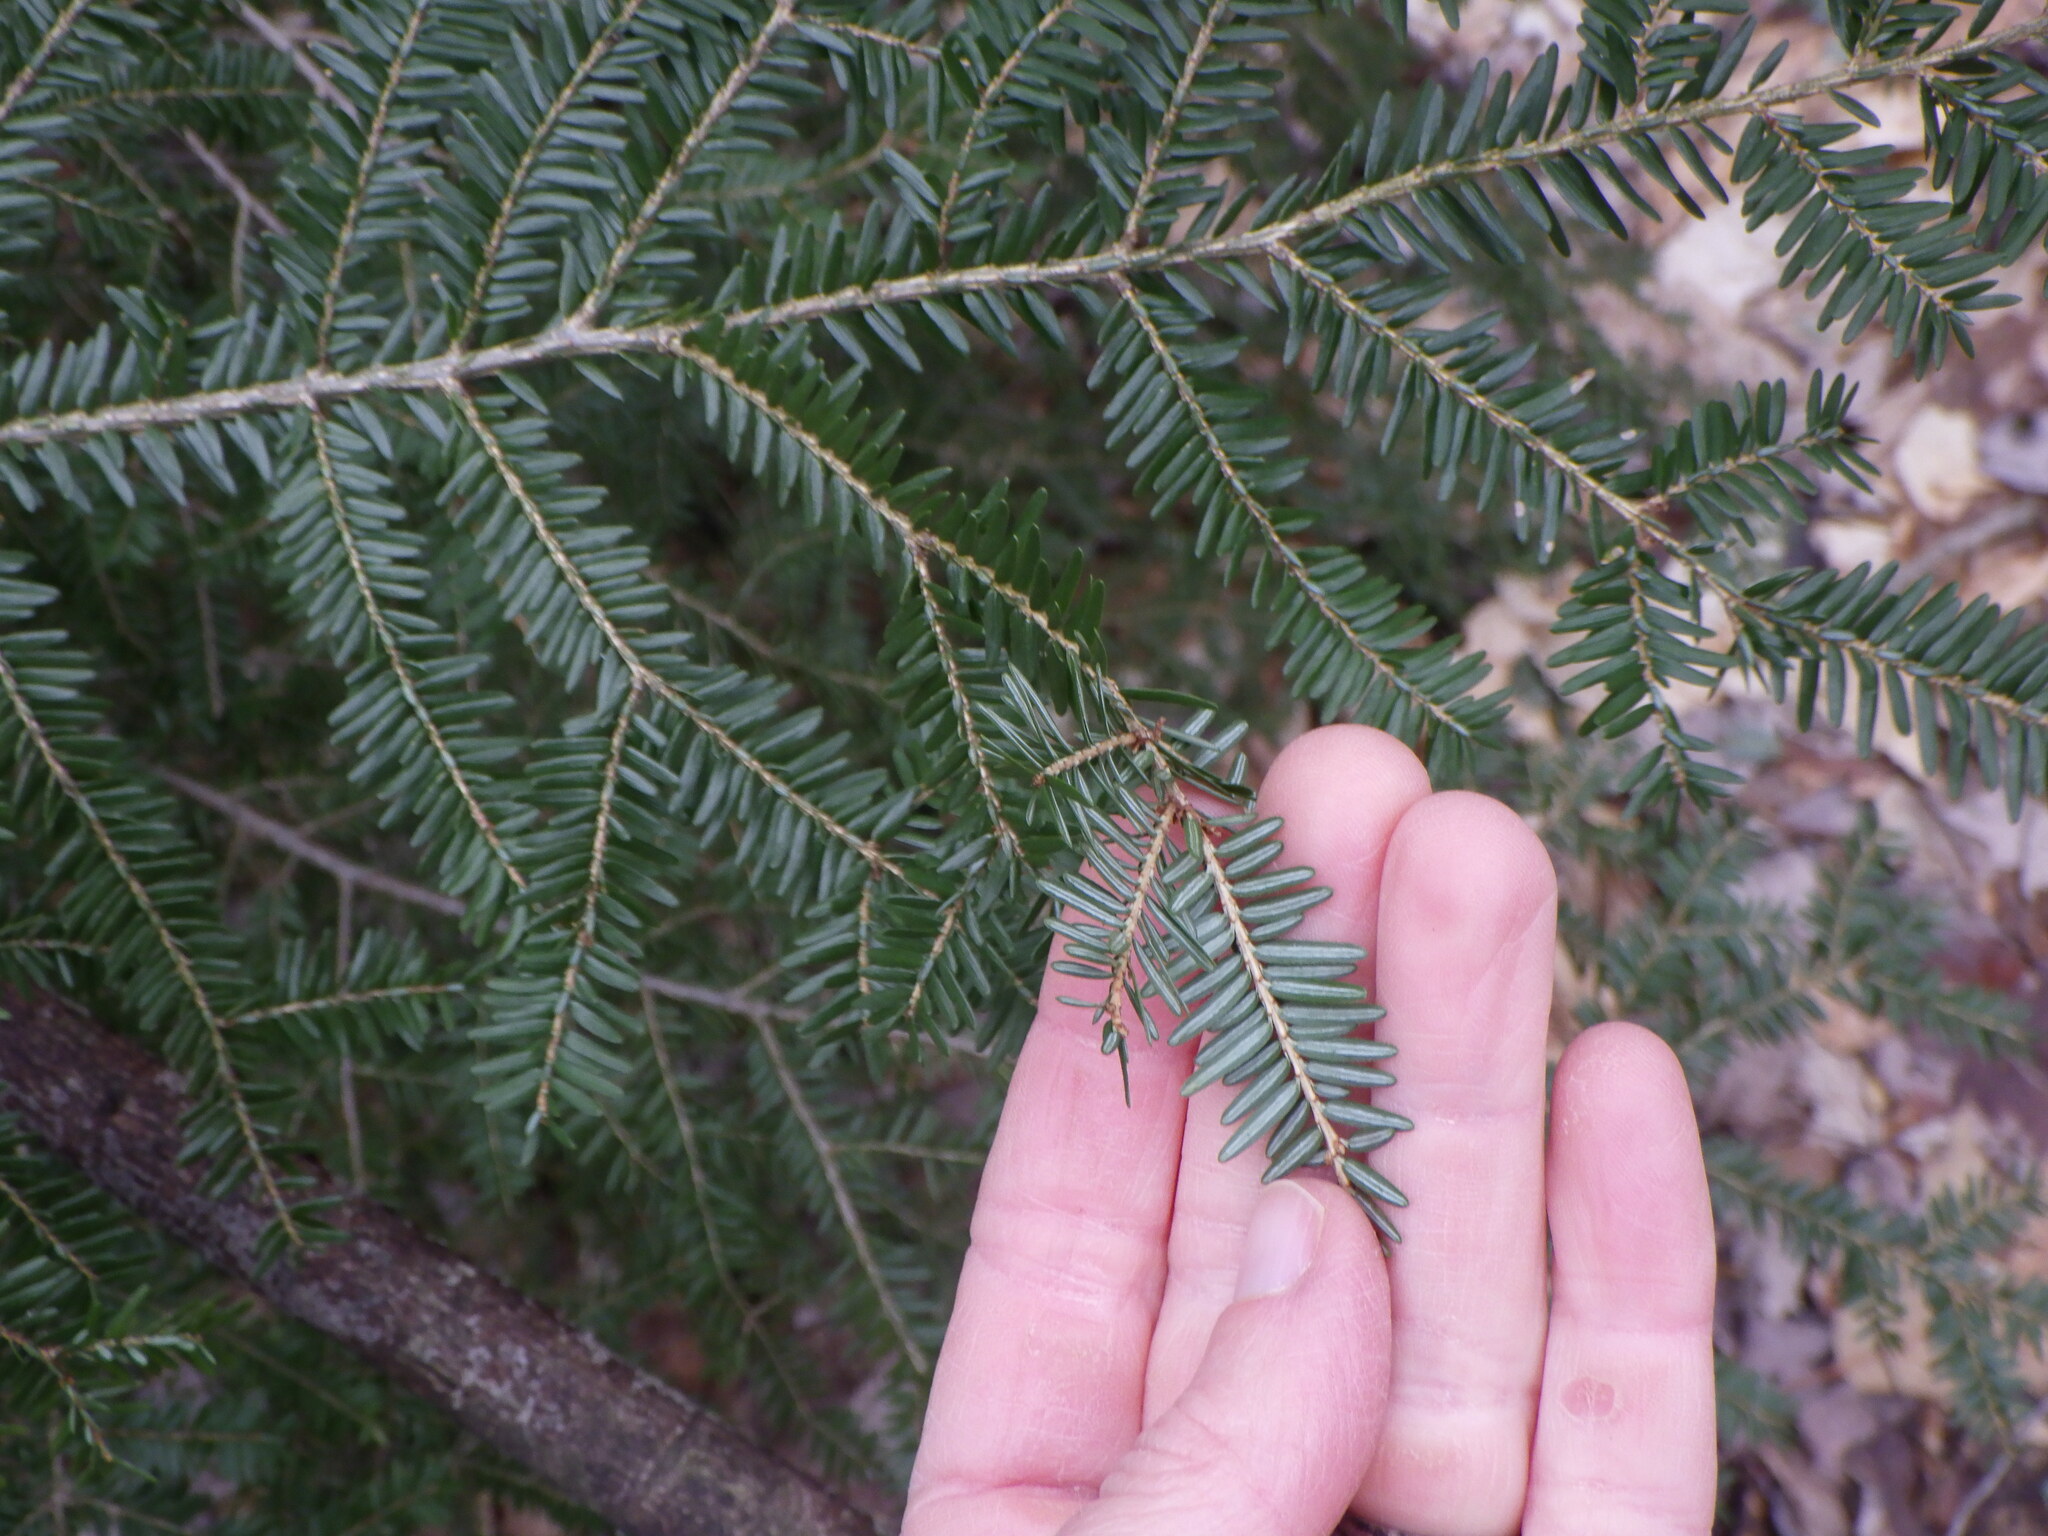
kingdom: Plantae
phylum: Tracheophyta
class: Pinopsida
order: Pinales
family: Pinaceae
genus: Tsuga
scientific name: Tsuga canadensis
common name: Eastern hemlock
